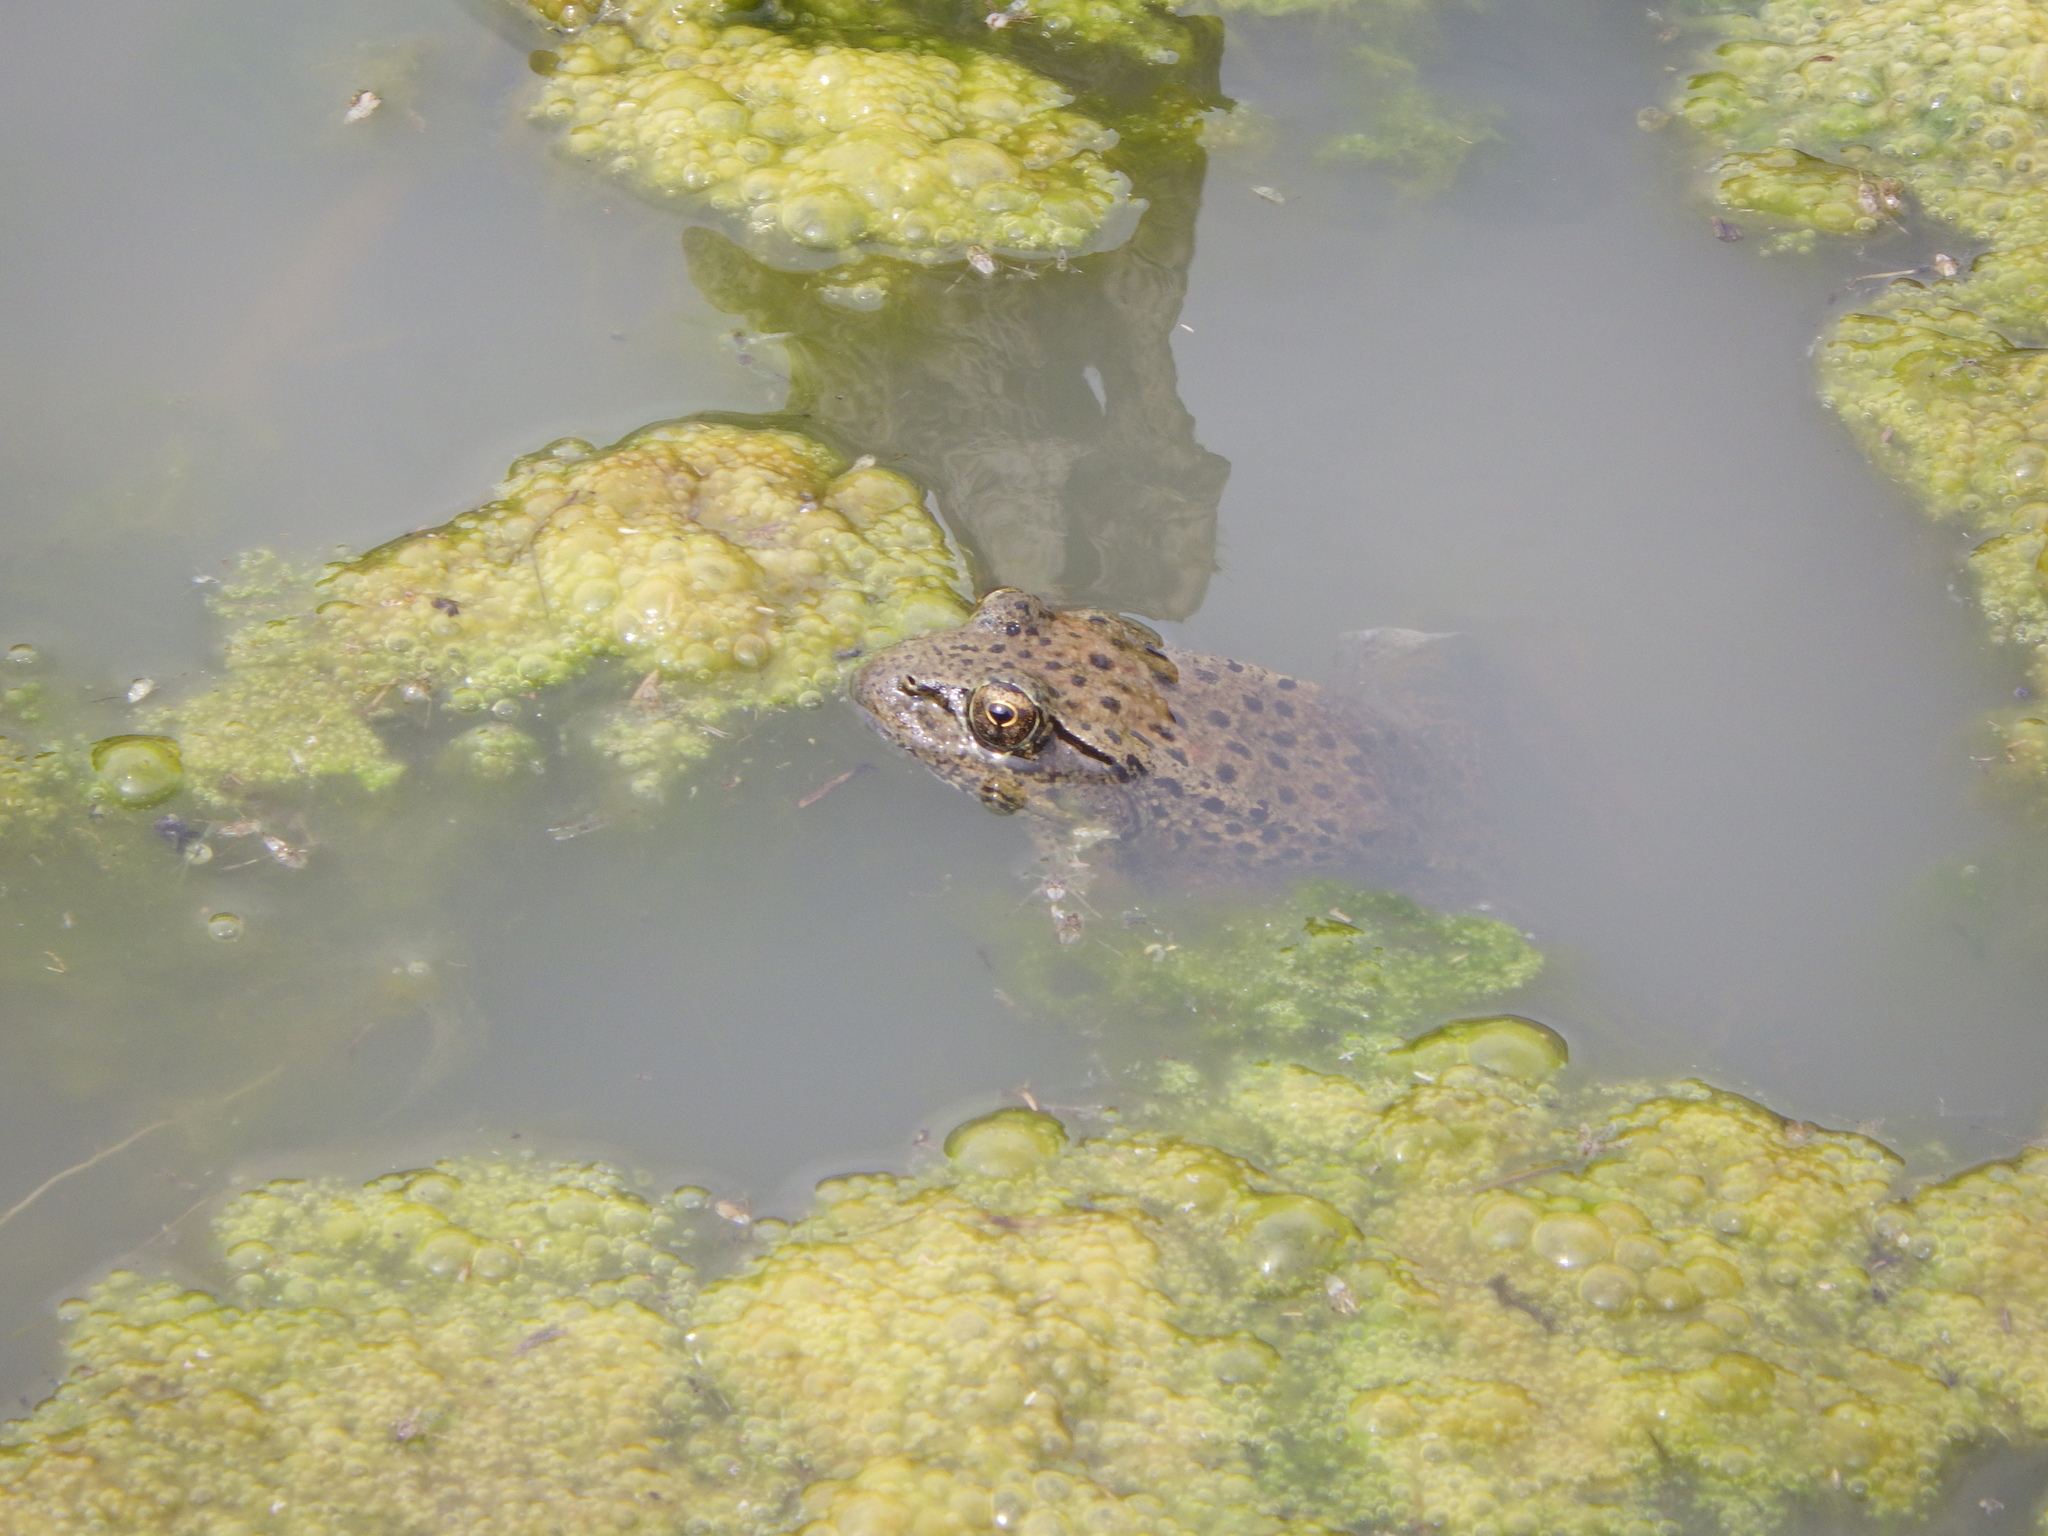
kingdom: Animalia
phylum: Chordata
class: Amphibia
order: Anura
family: Ranidae
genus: Rana
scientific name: Rana draytonii
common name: California red-legged frog
